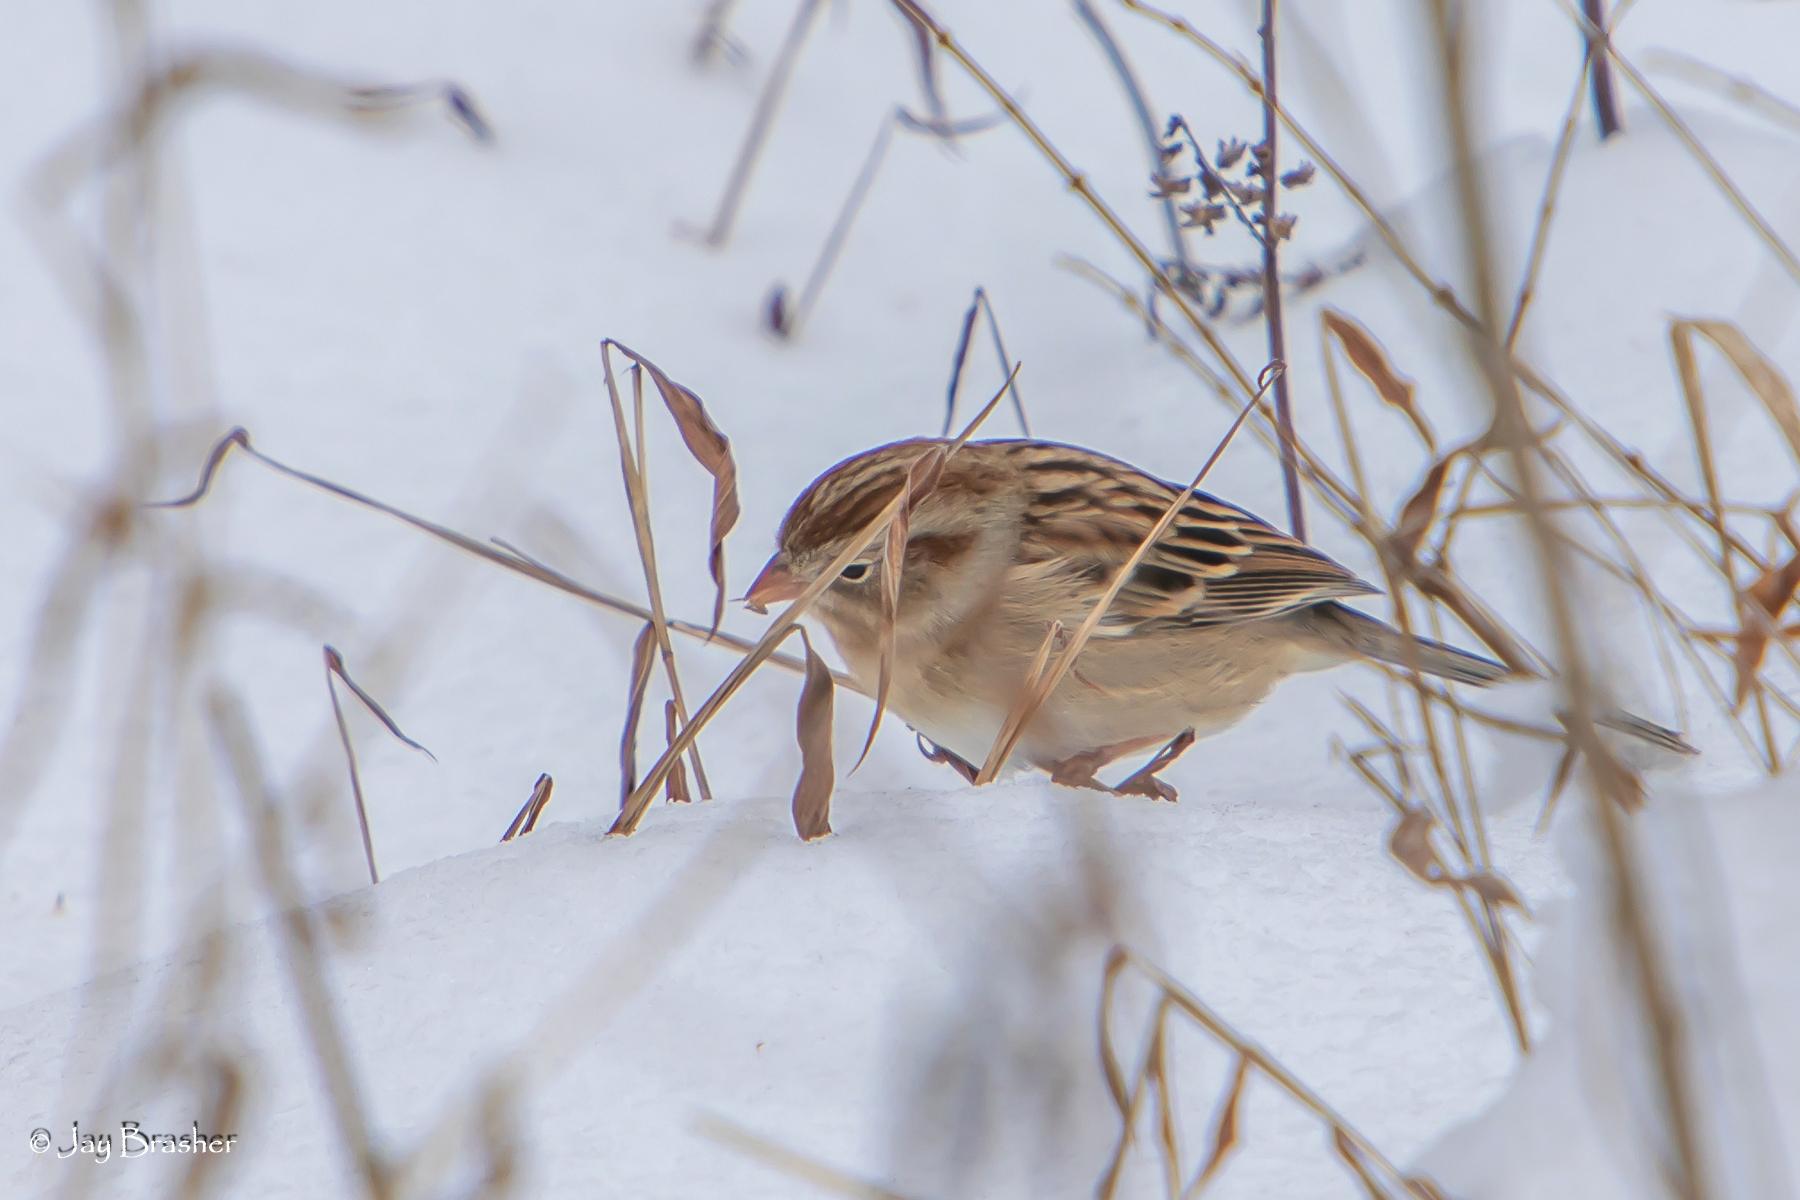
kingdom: Animalia
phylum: Chordata
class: Aves
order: Passeriformes
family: Passerellidae
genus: Spizella
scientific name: Spizella pusilla
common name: Field sparrow
